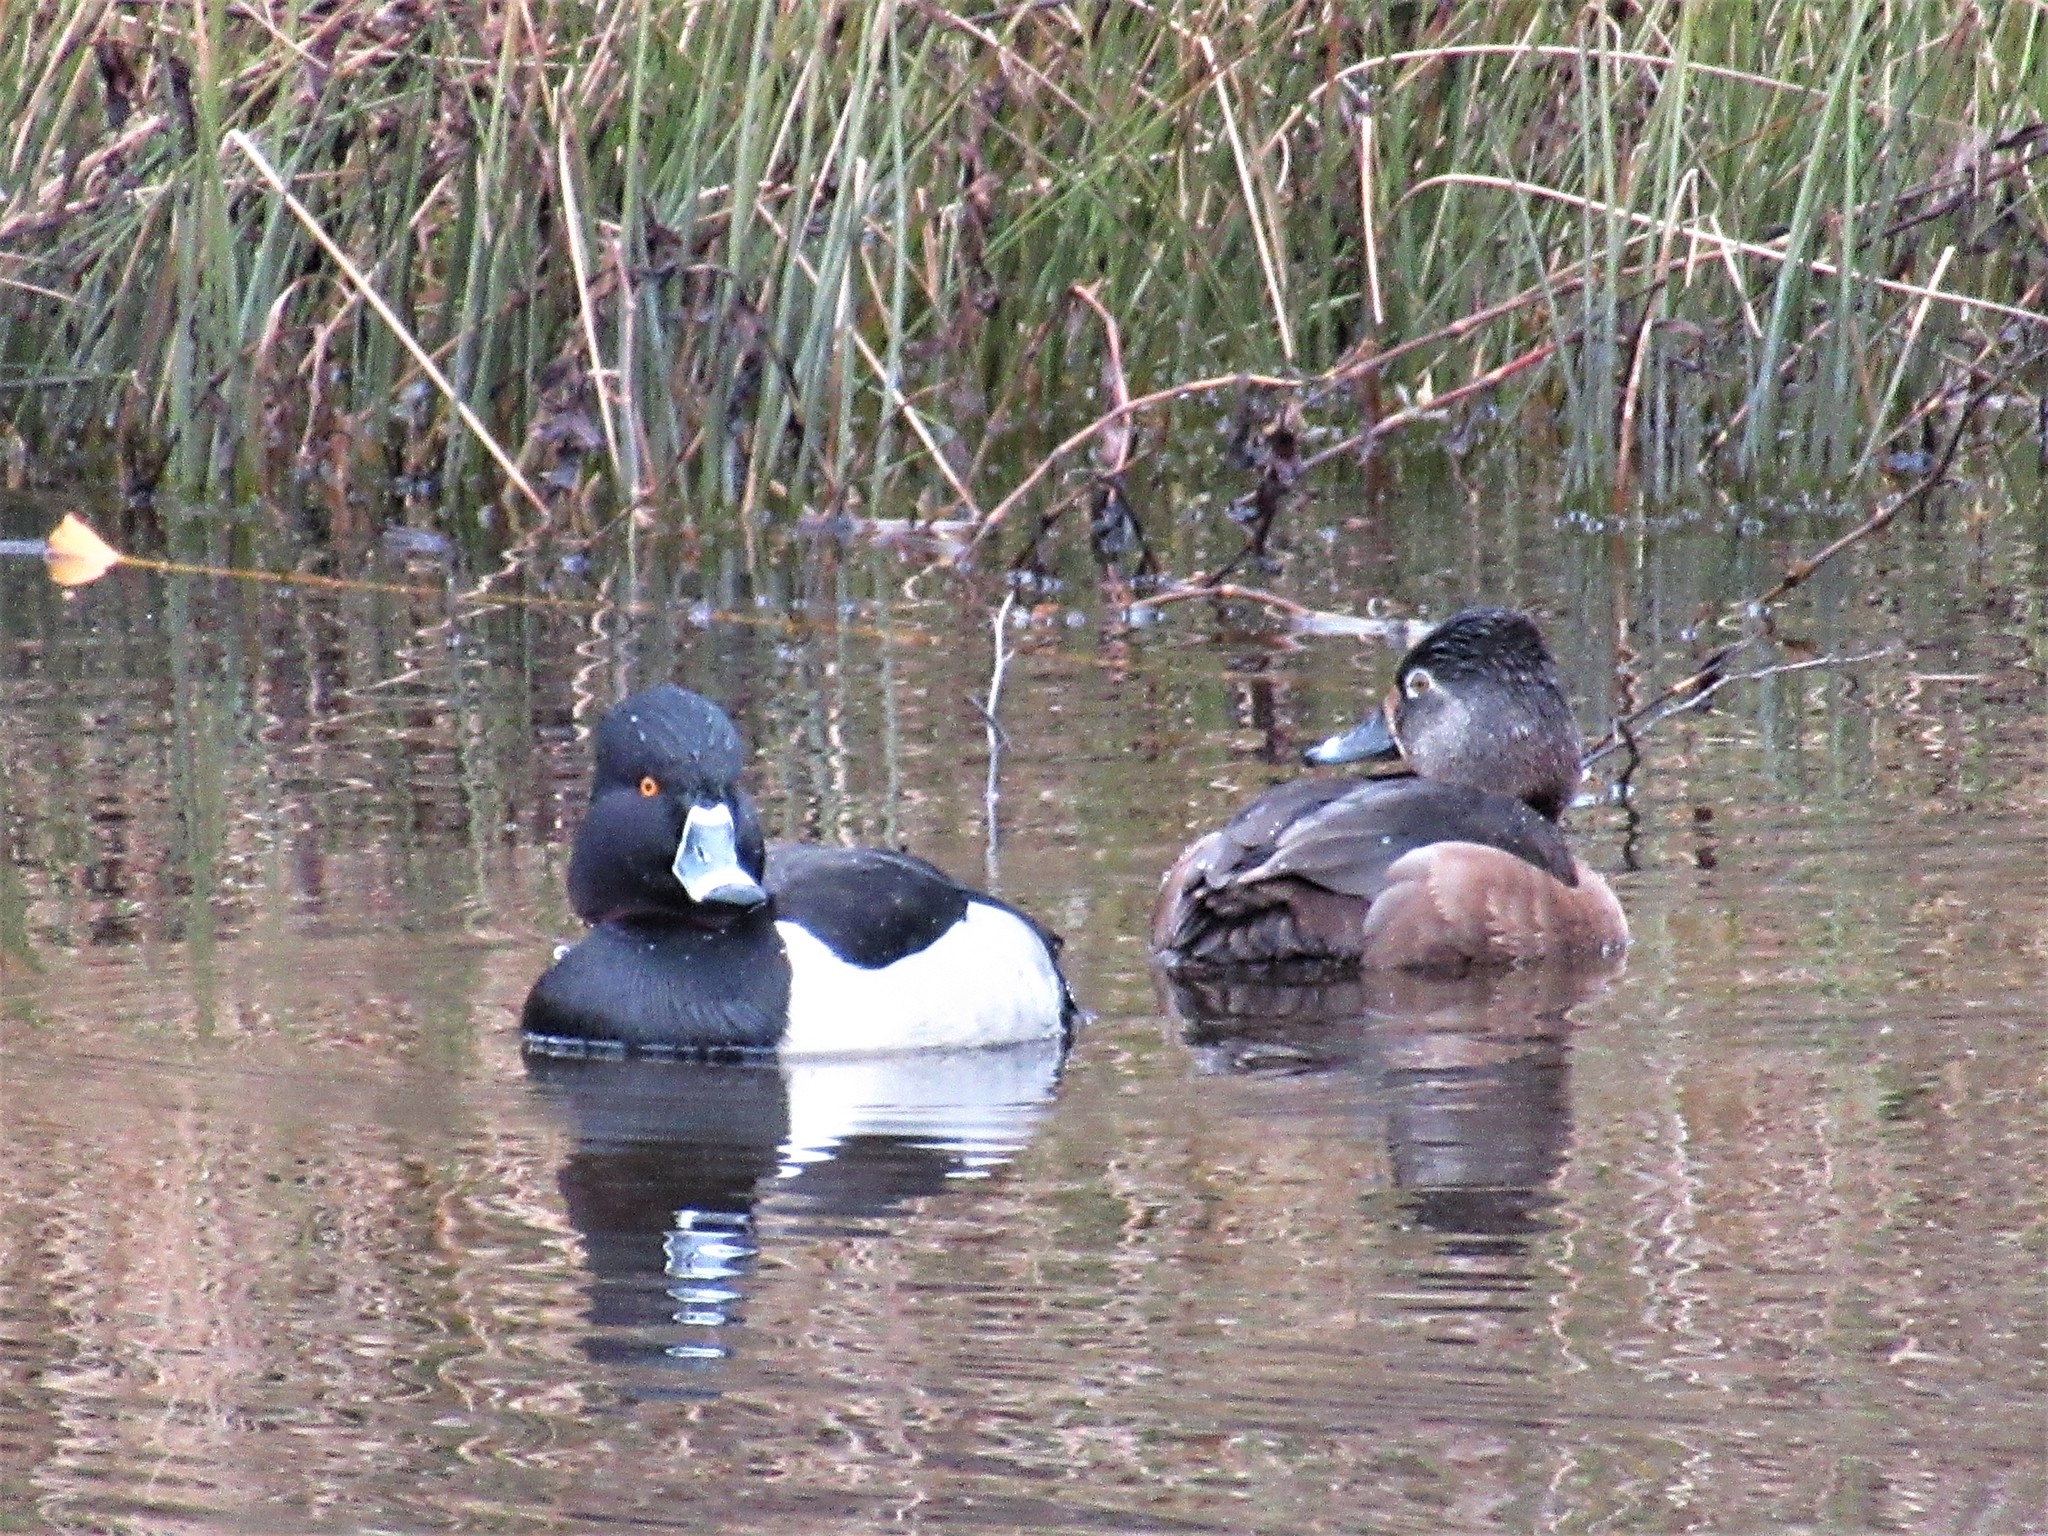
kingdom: Animalia
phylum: Chordata
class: Aves
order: Anseriformes
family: Anatidae
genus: Aythya
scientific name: Aythya collaris
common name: Ring-necked duck
